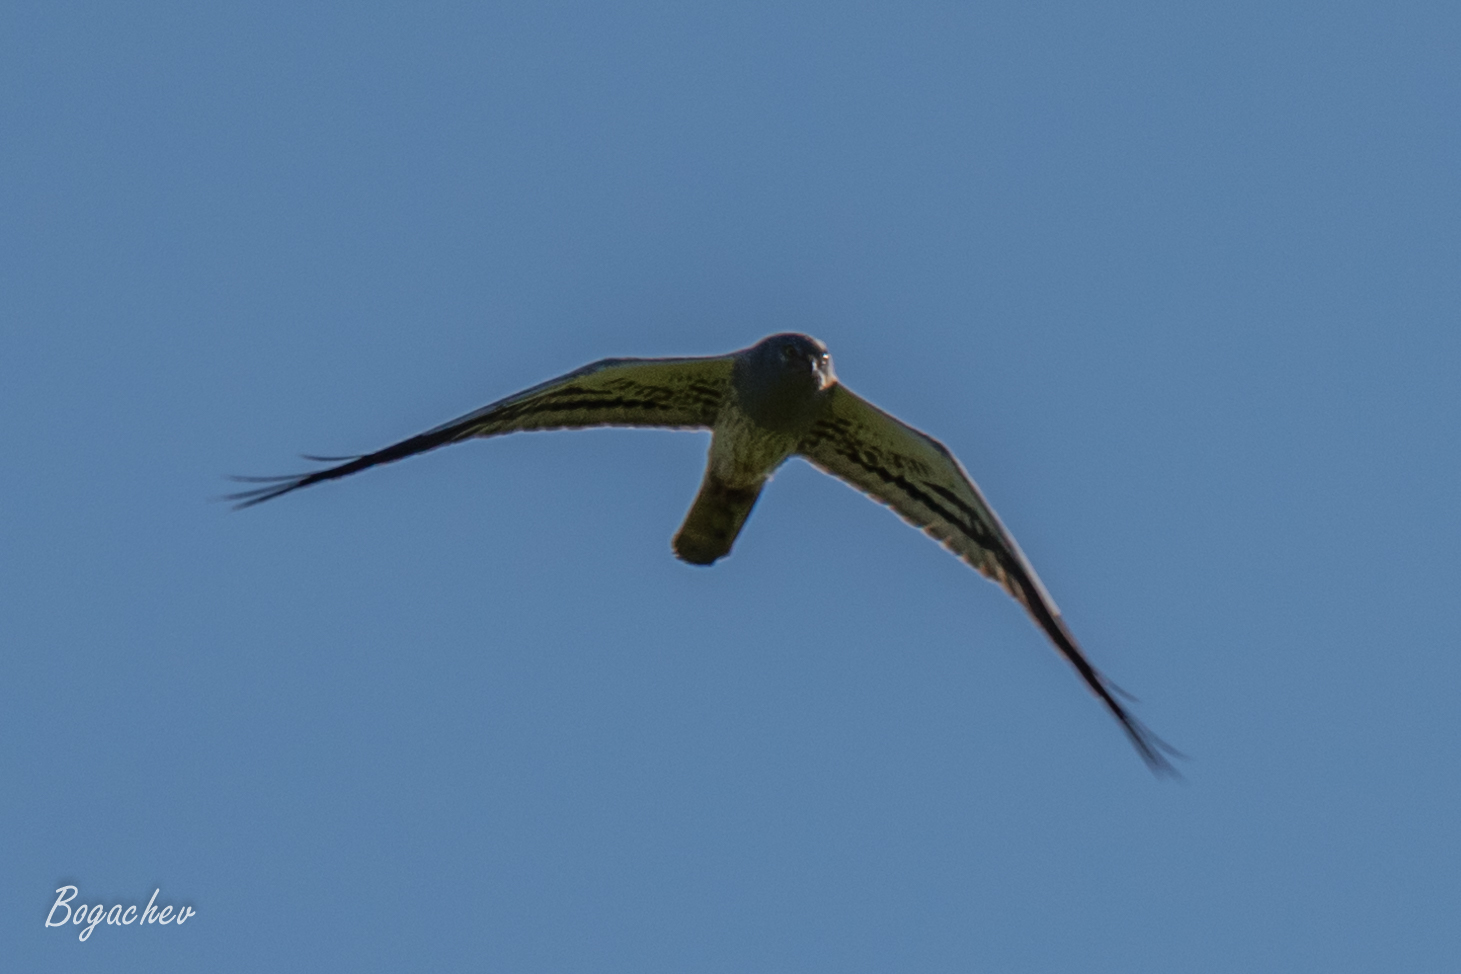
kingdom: Animalia
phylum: Chordata
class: Aves
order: Accipitriformes
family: Accipitridae
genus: Circus
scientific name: Circus pygargus
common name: Montagu's harrier
